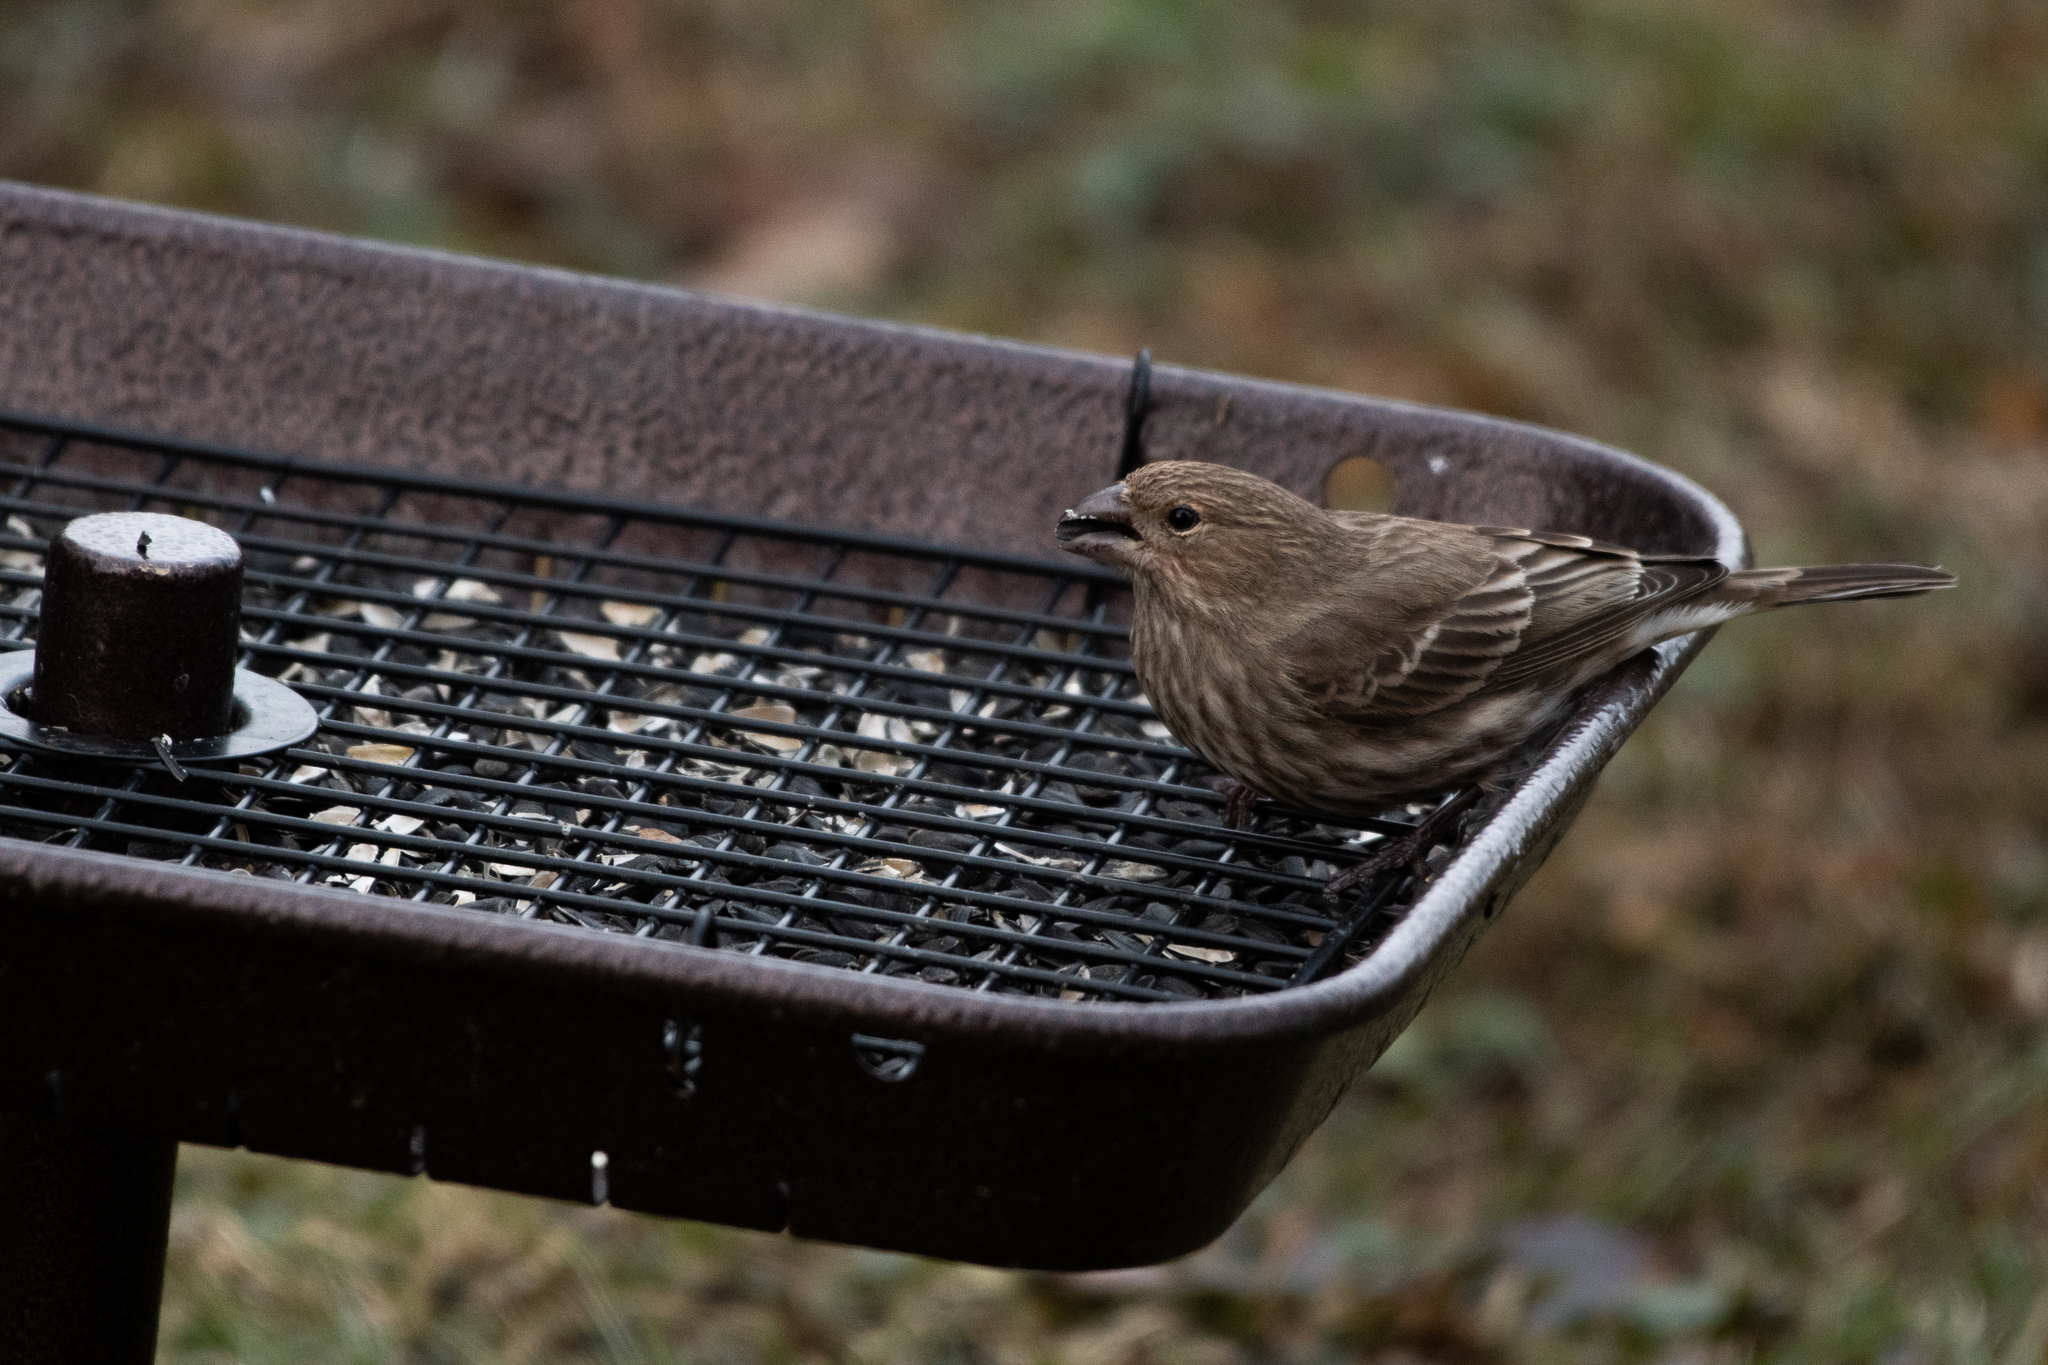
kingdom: Animalia
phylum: Chordata
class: Aves
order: Passeriformes
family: Fringillidae
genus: Haemorhous
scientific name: Haemorhous mexicanus
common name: House finch
